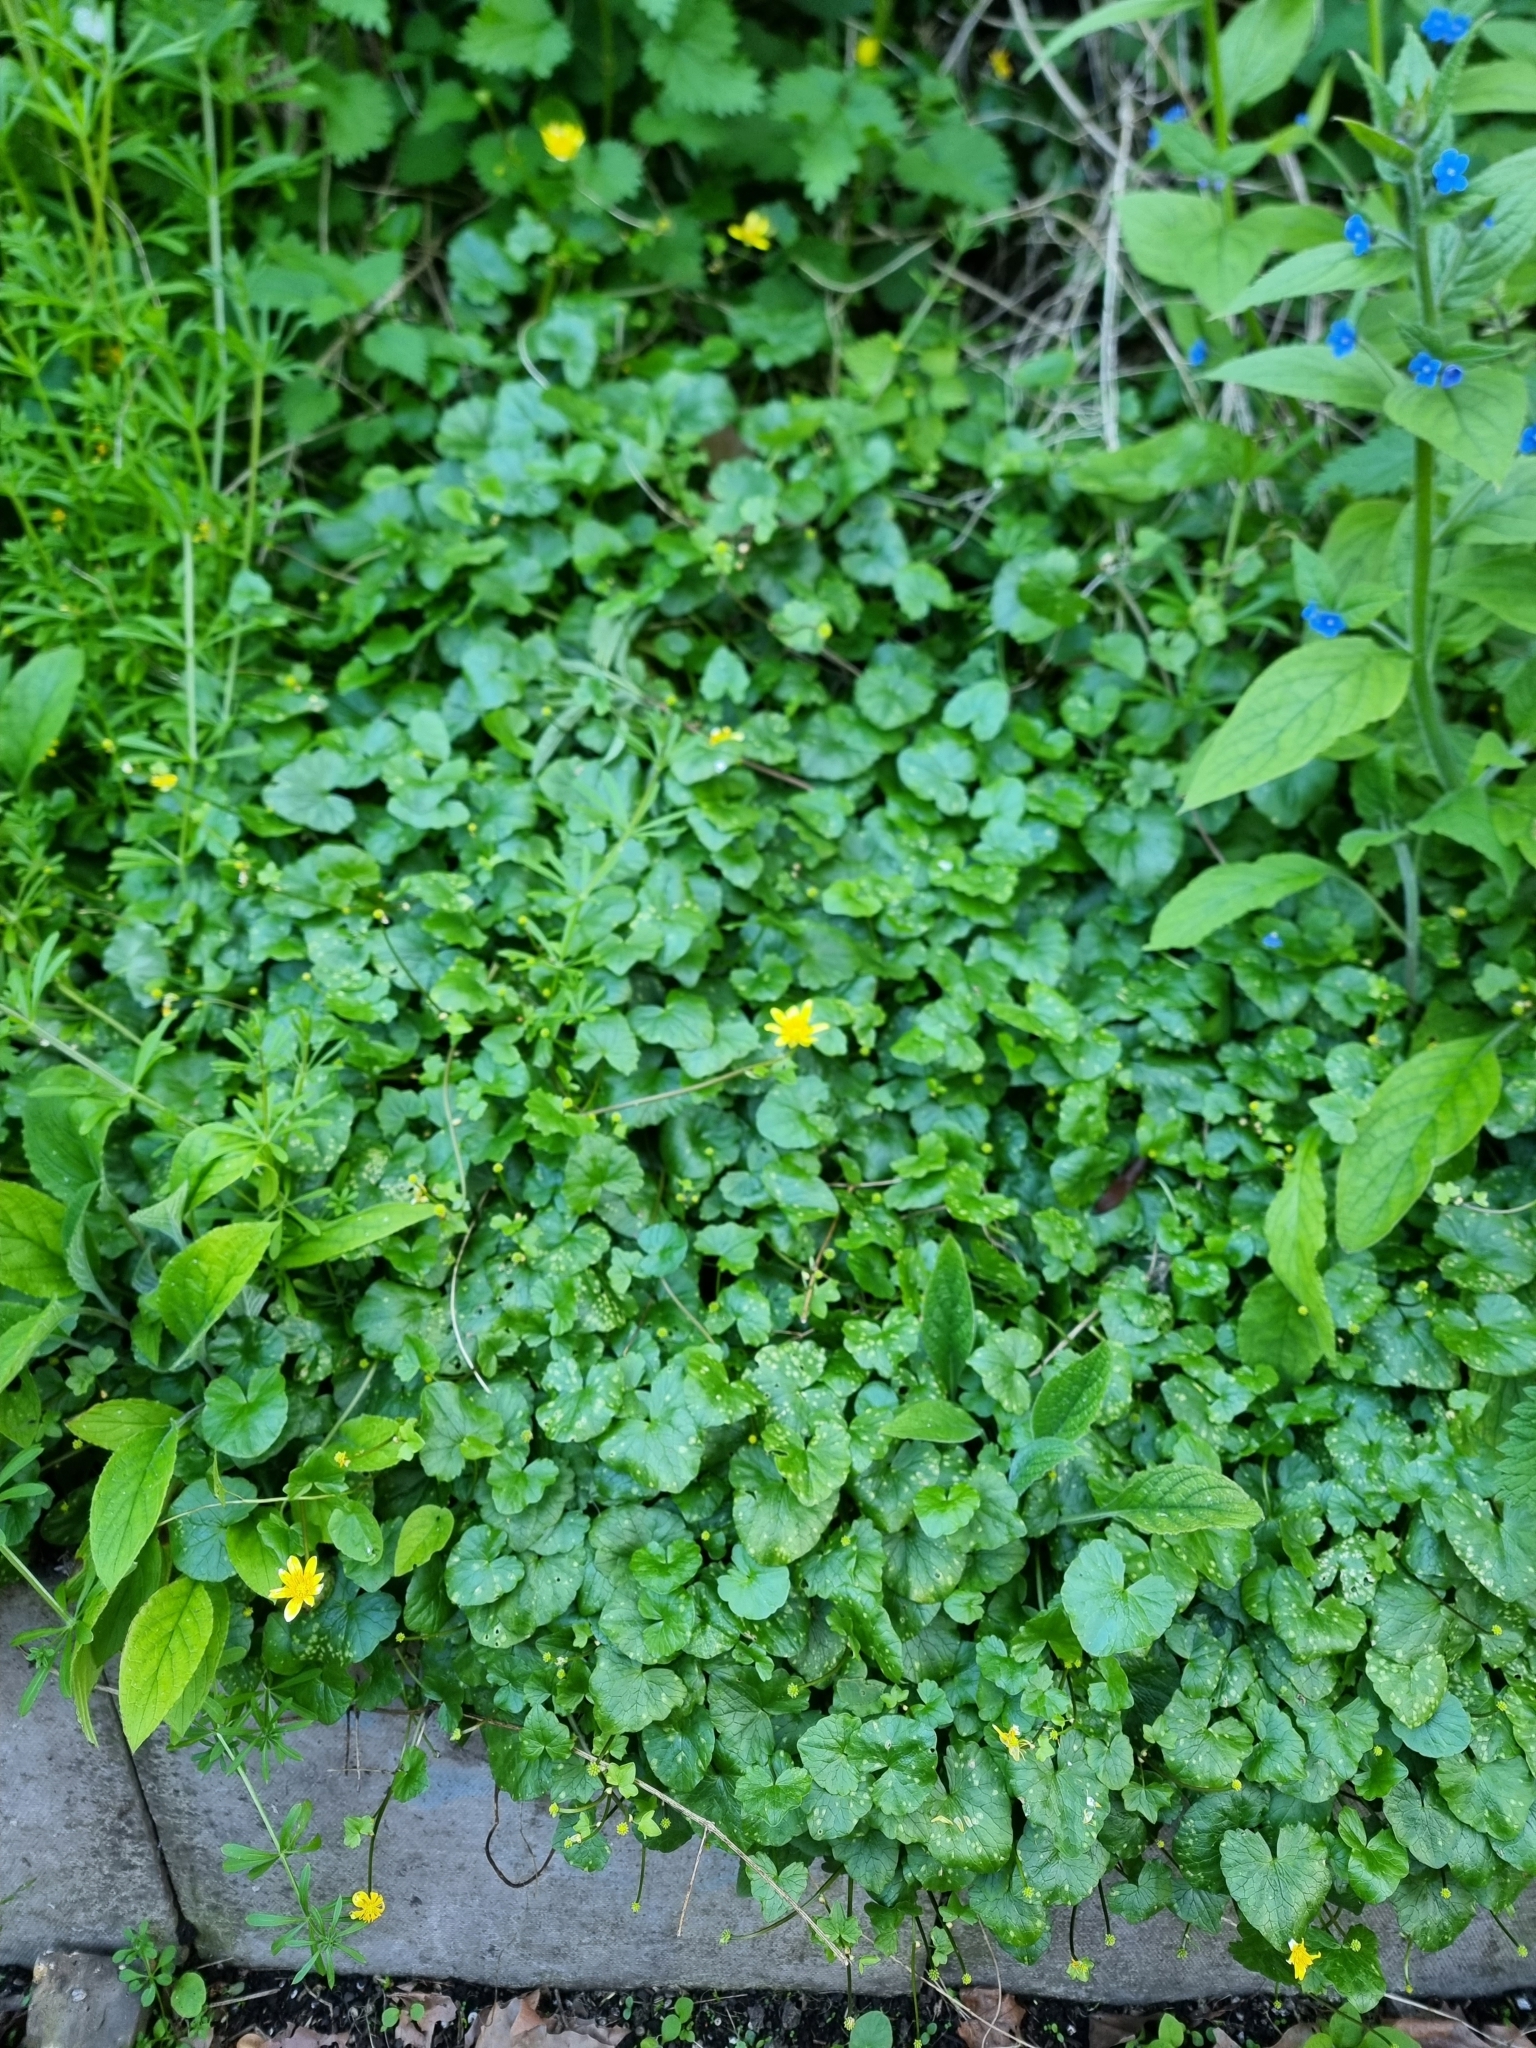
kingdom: Plantae
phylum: Tracheophyta
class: Magnoliopsida
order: Ranunculales
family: Ranunculaceae
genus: Ficaria
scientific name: Ficaria verna
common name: Lesser celandine
